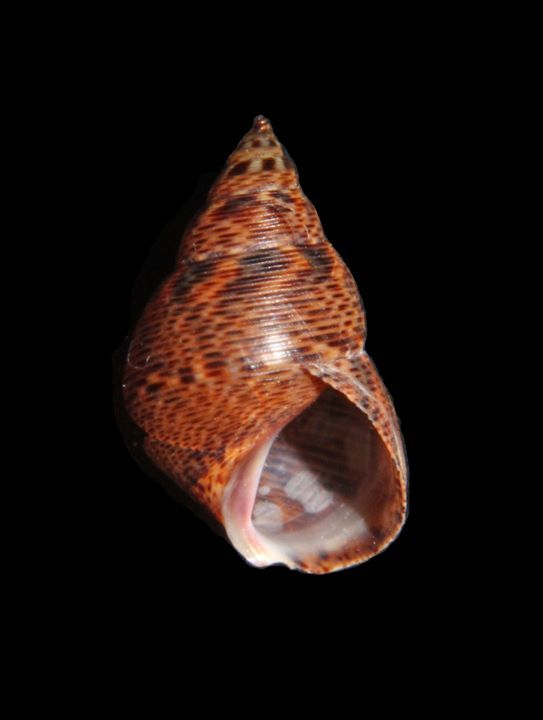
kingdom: Animalia
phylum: Mollusca
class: Gastropoda
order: Littorinimorpha
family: Littorinidae
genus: Littoraria
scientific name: Littoraria angulifera
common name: Mangrove periwinkle
